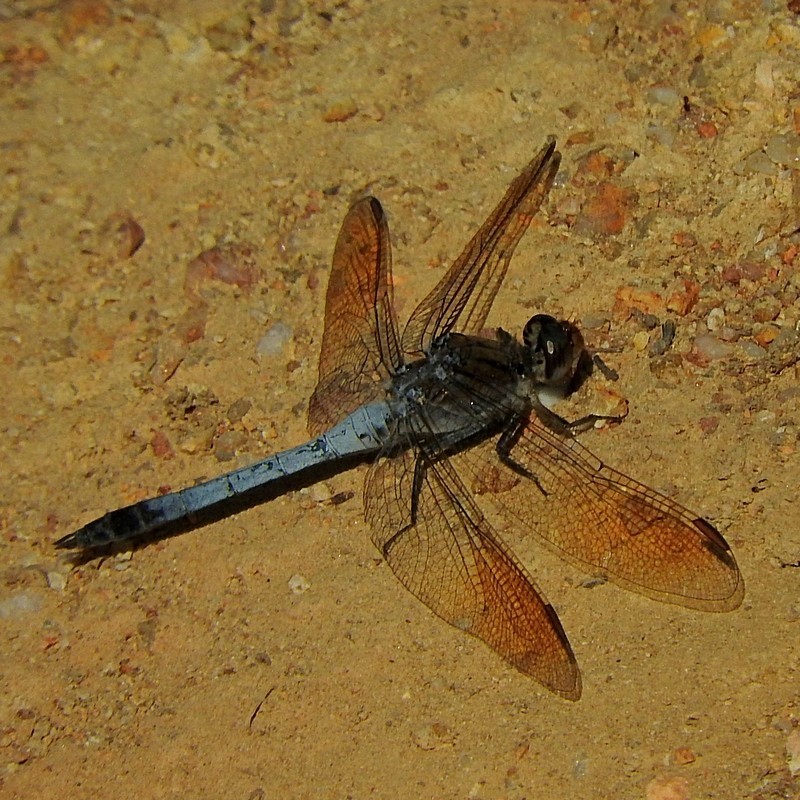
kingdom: Animalia
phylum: Arthropoda
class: Insecta
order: Odonata
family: Libellulidae
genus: Orthetrum
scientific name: Orthetrum caledonicum
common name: Blue skimmer
